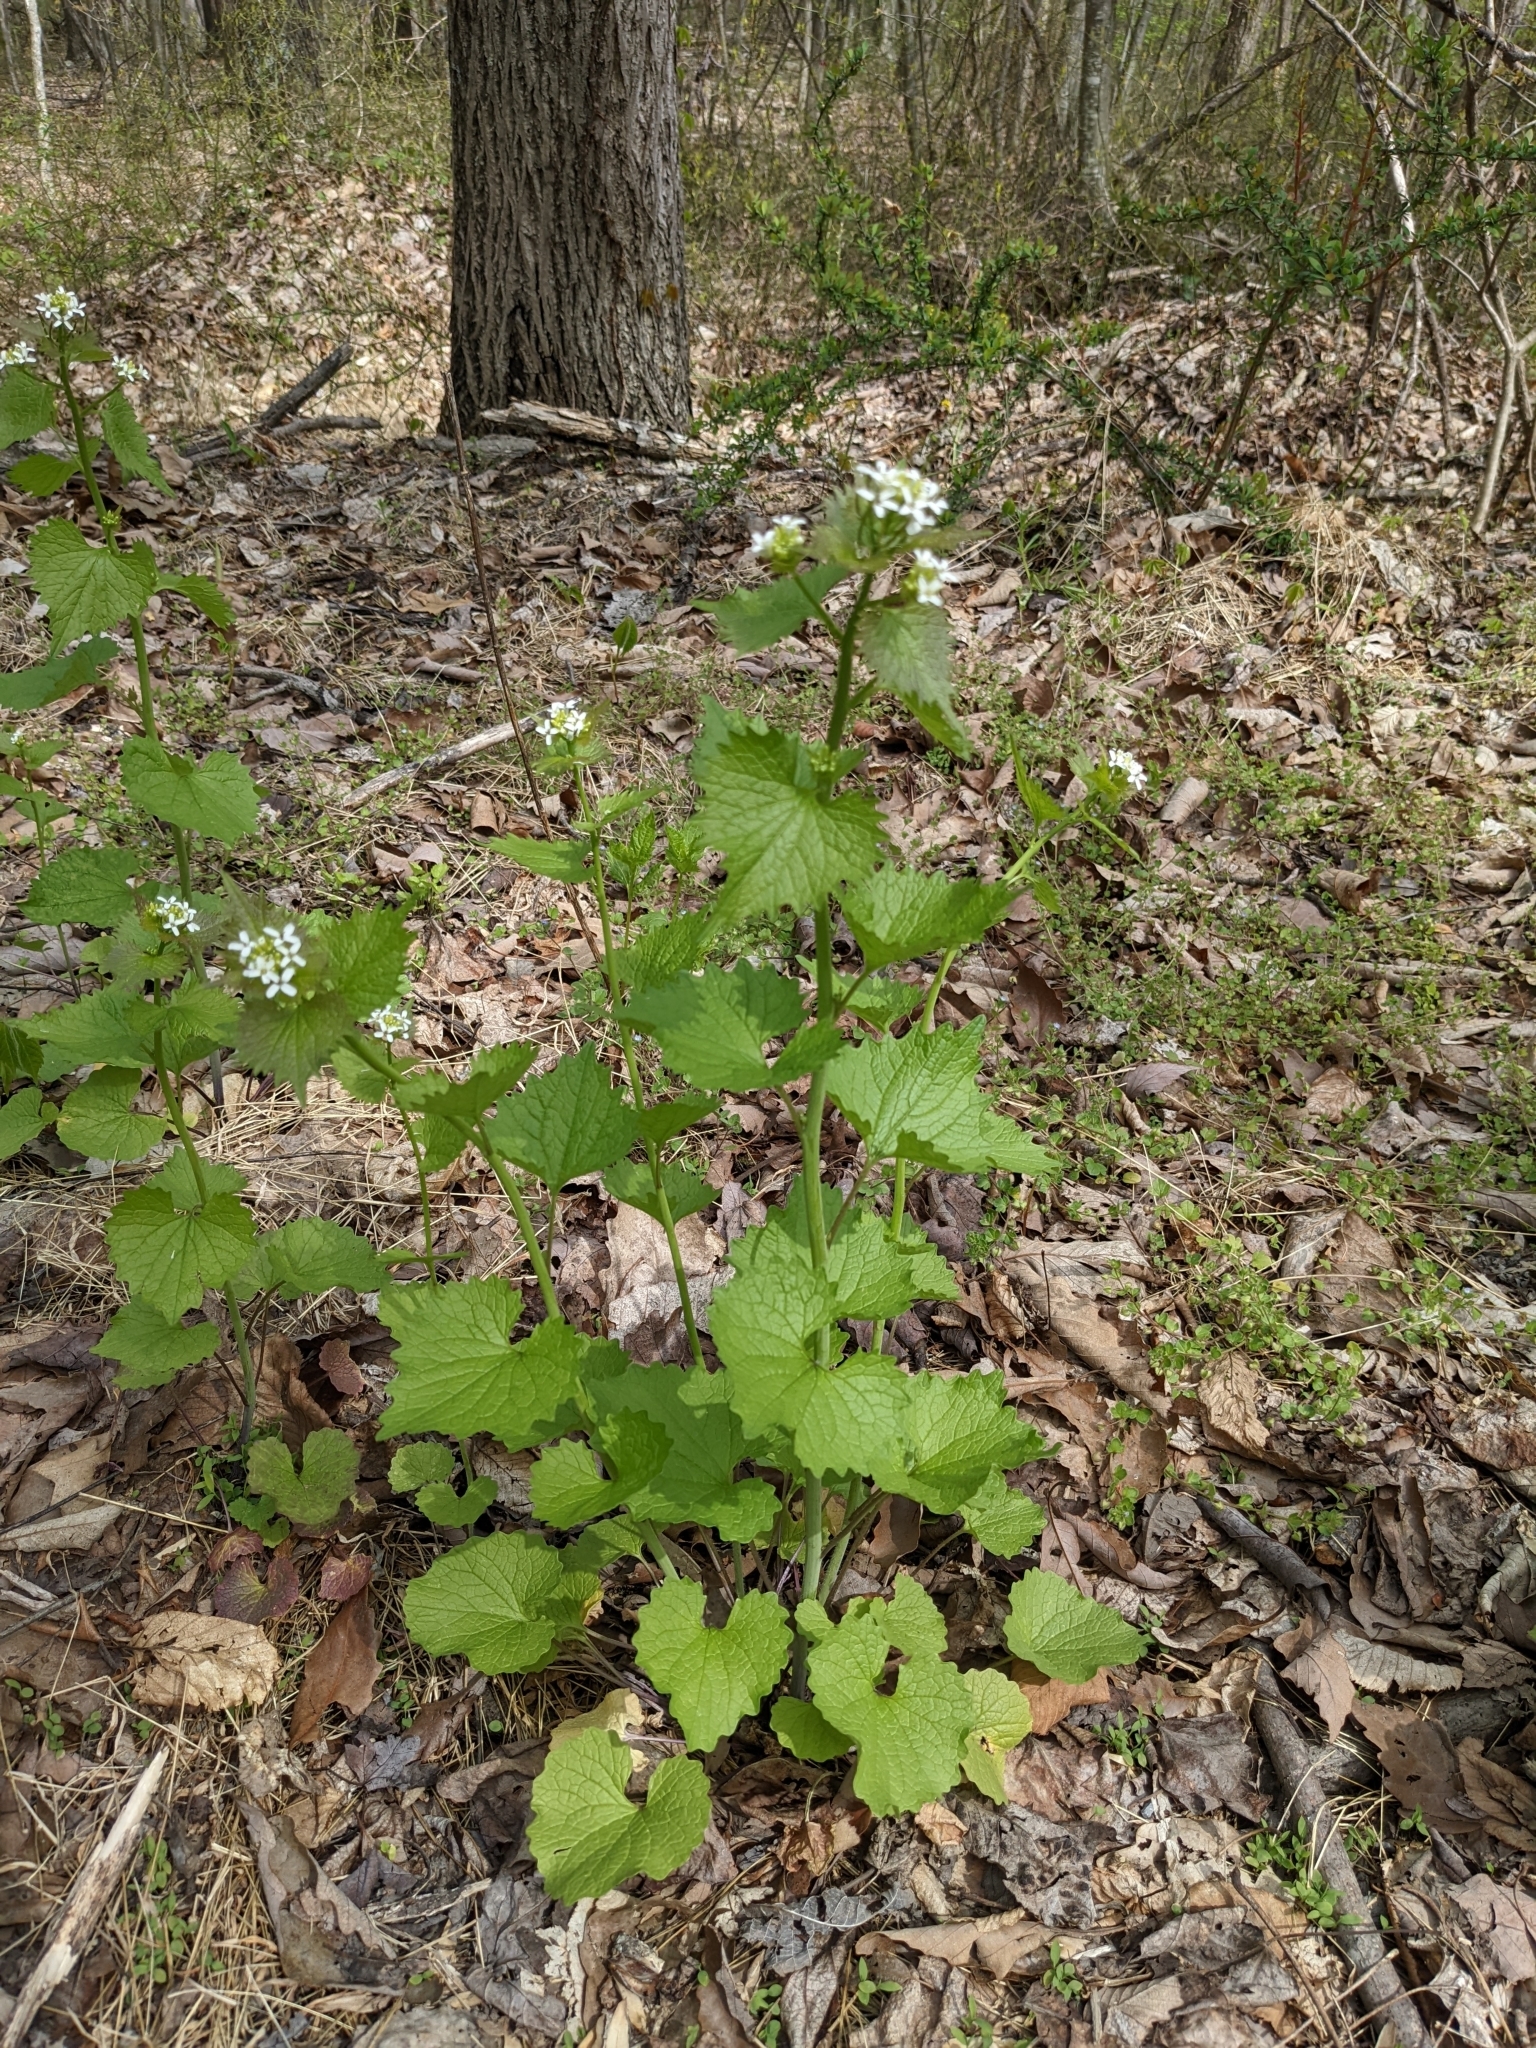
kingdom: Plantae
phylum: Tracheophyta
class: Magnoliopsida
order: Brassicales
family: Brassicaceae
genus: Alliaria
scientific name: Alliaria petiolata
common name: Garlic mustard
